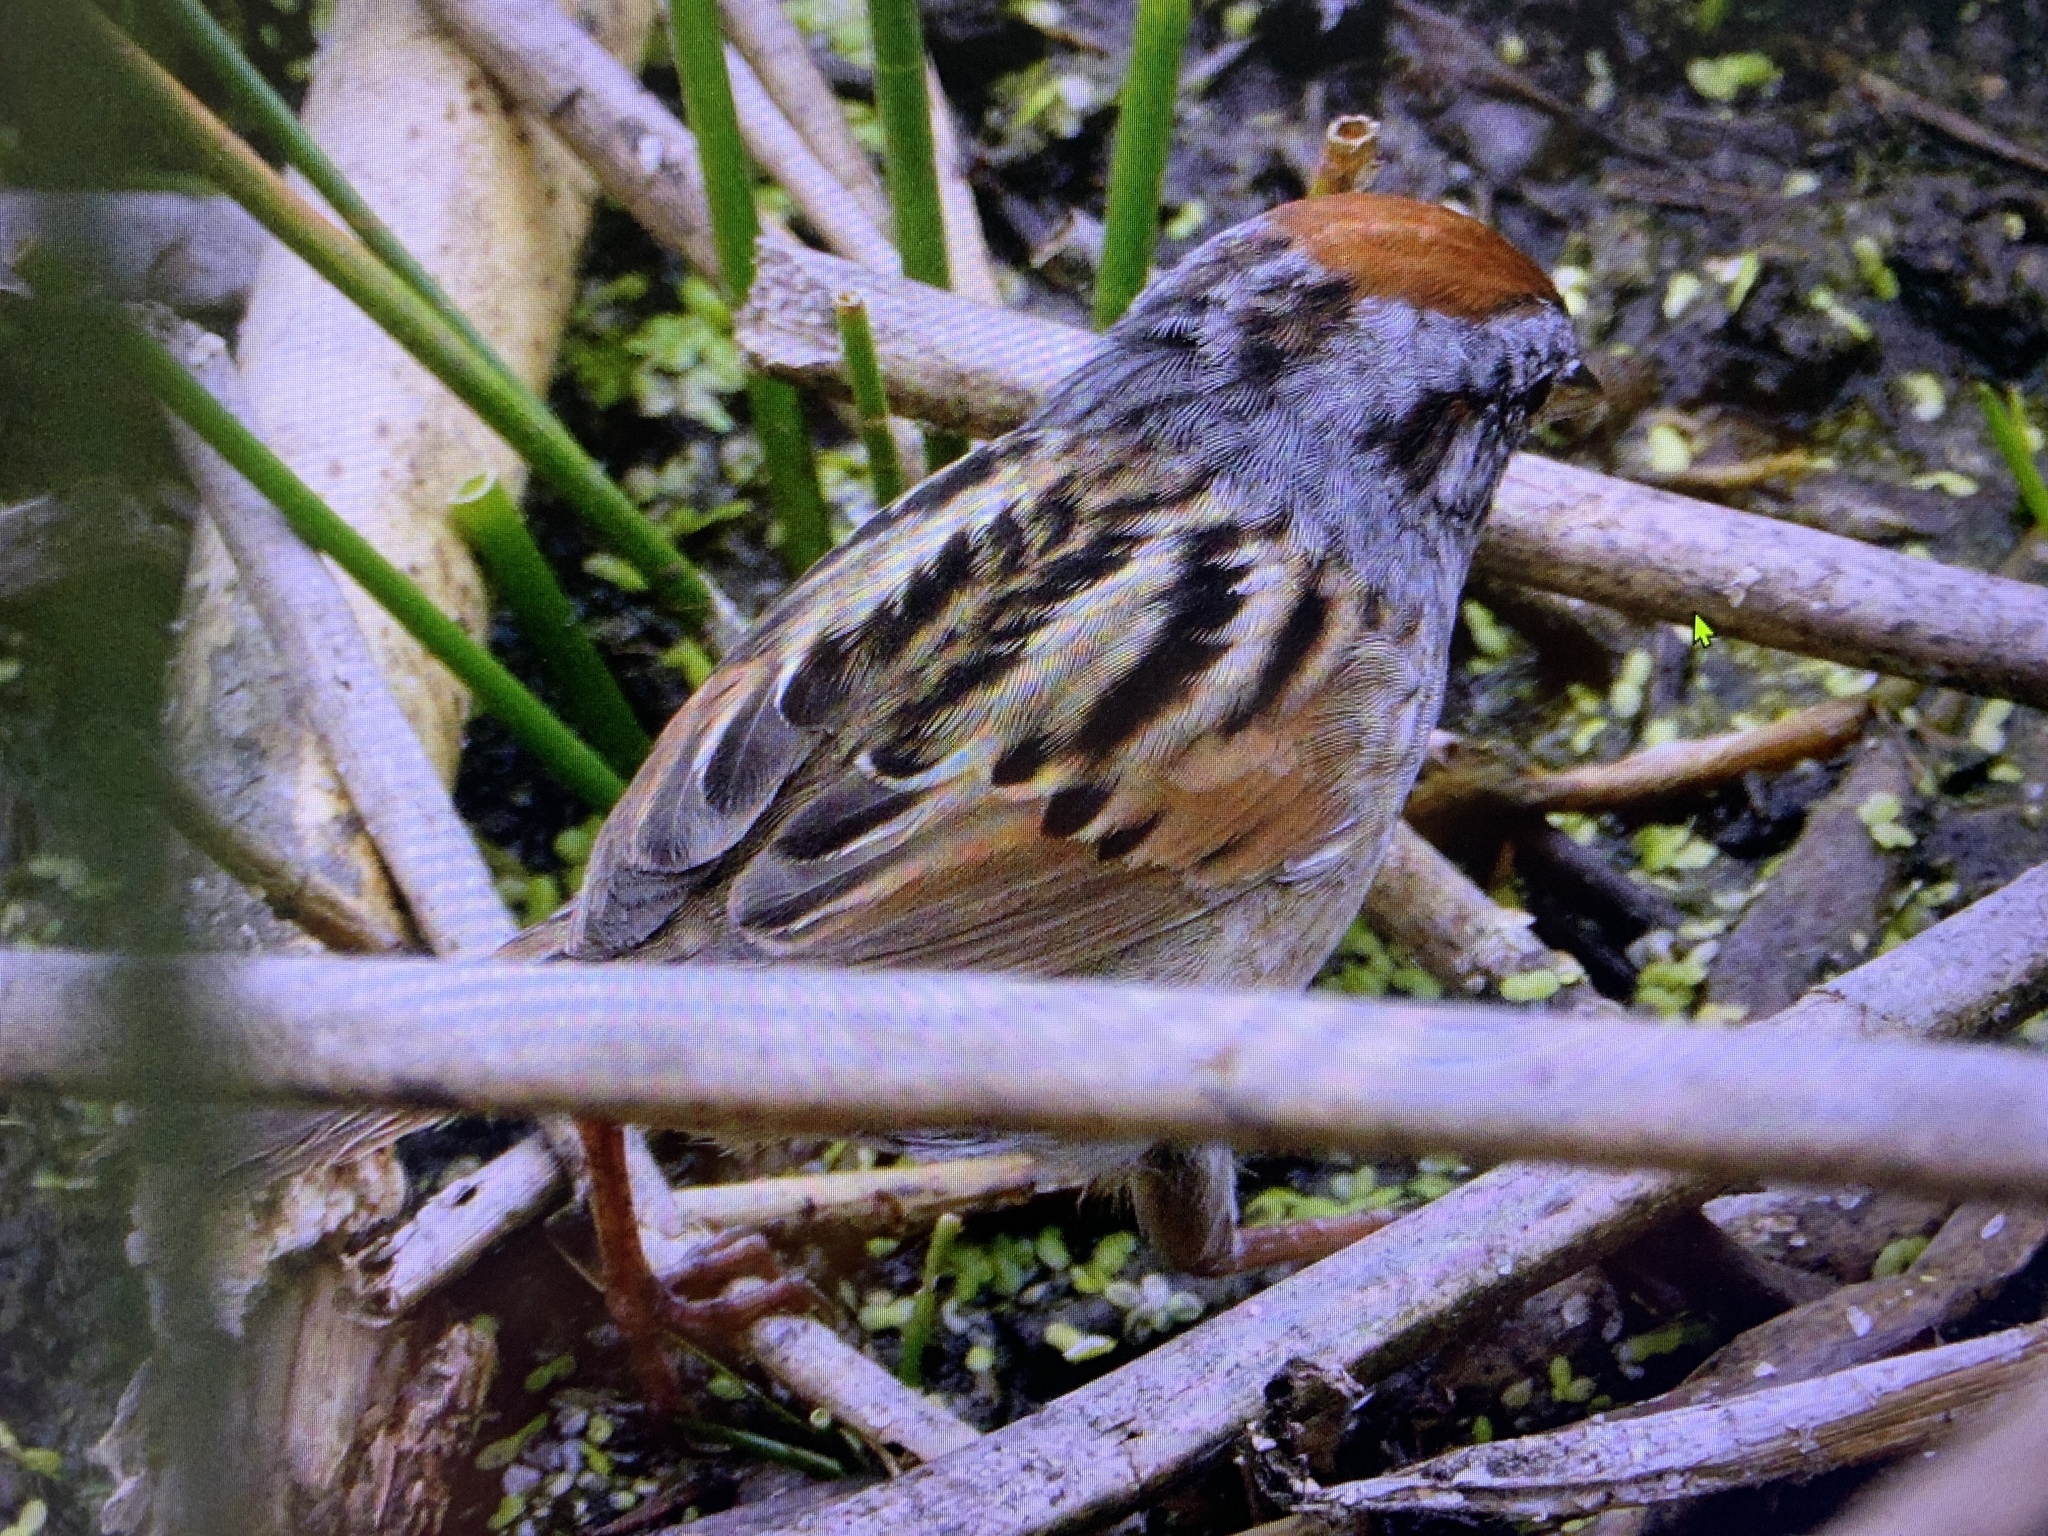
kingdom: Animalia
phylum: Chordata
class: Aves
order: Passeriformes
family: Passerellidae
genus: Melospiza
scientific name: Melospiza georgiana
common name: Swamp sparrow
